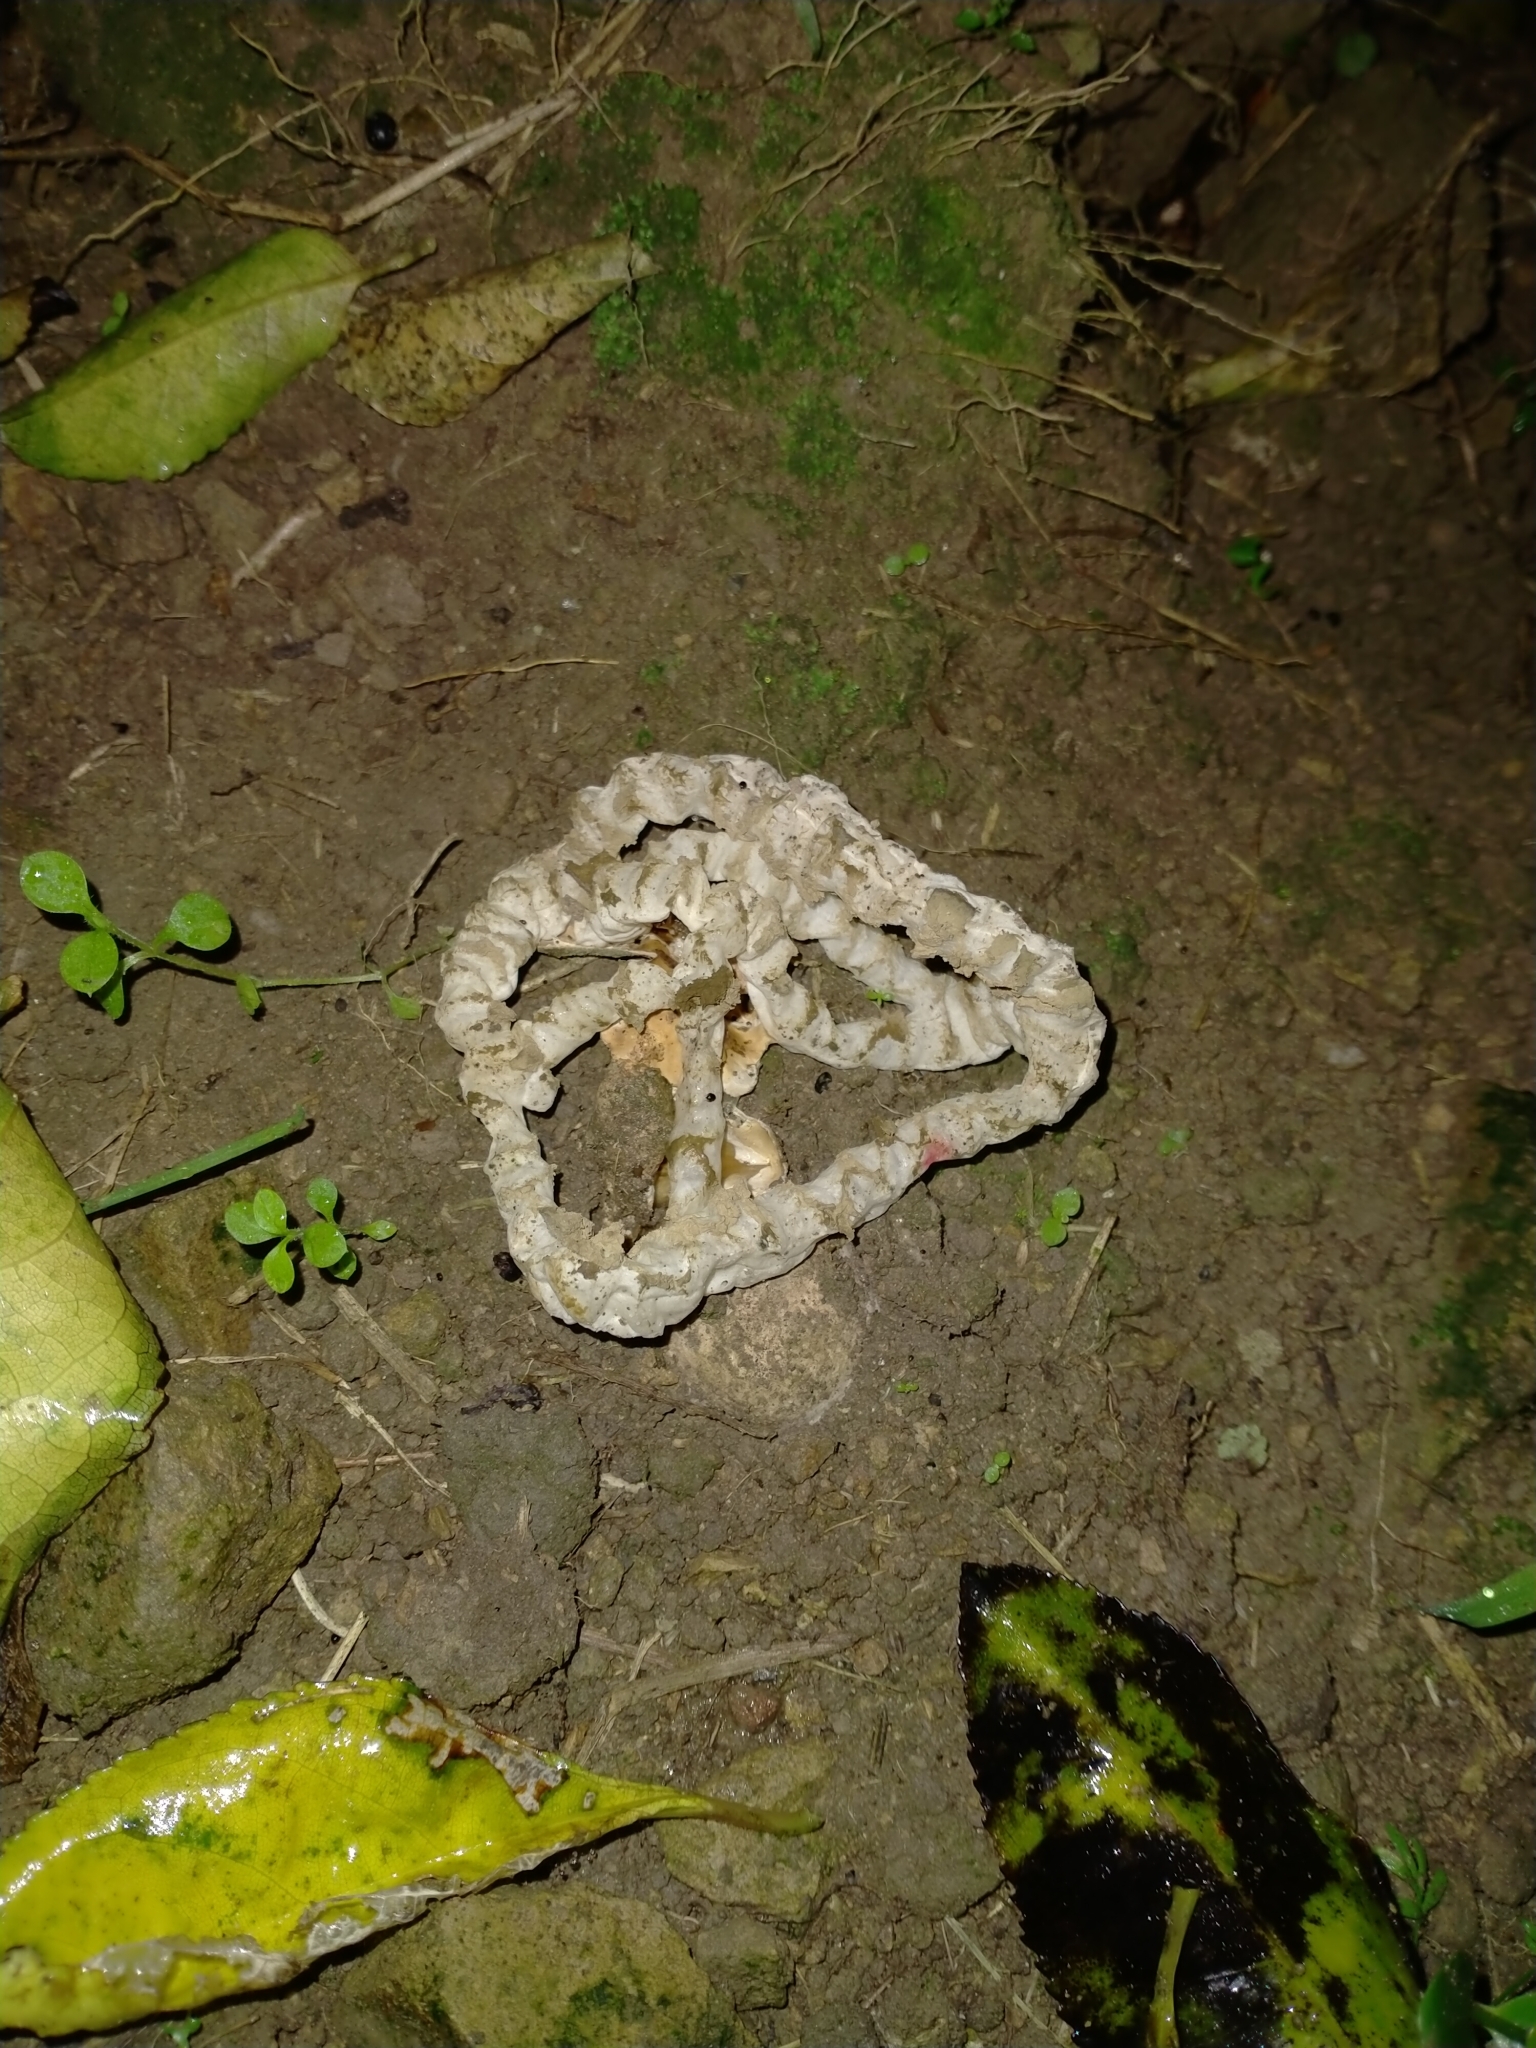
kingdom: Fungi
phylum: Basidiomycota
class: Agaricomycetes
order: Phallales
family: Phallaceae
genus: Ileodictyon
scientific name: Ileodictyon cibarium
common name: Basket fungus
